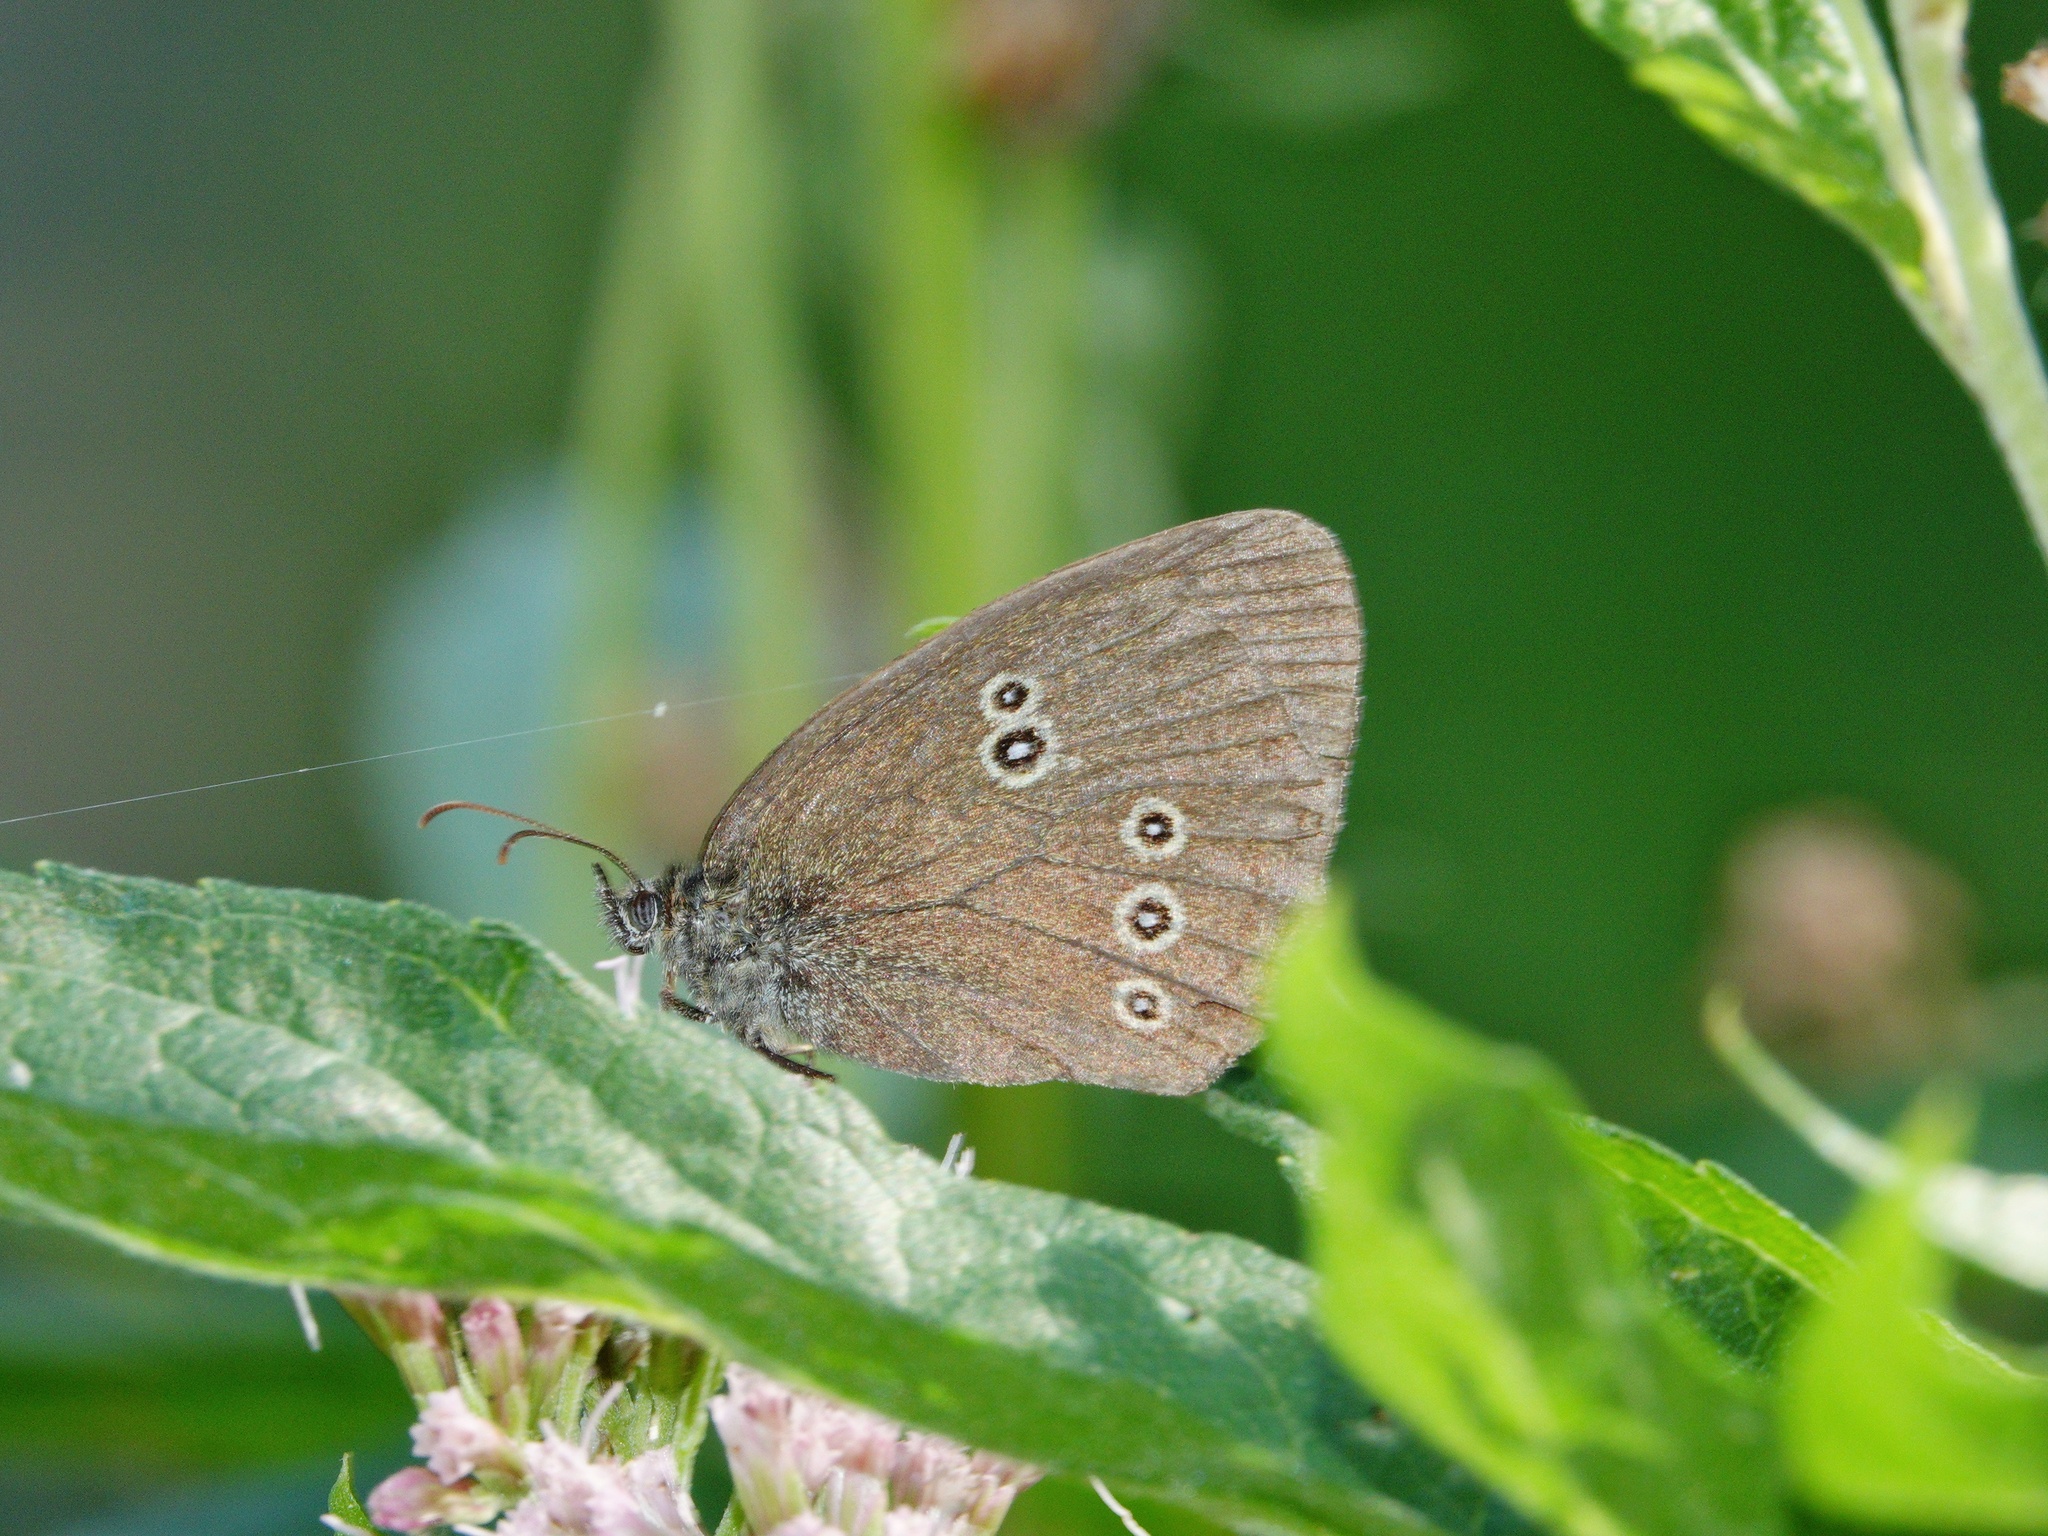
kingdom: Animalia
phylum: Arthropoda
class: Insecta
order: Lepidoptera
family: Nymphalidae
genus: Aphantopus
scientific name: Aphantopus hyperantus
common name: Ringlet
